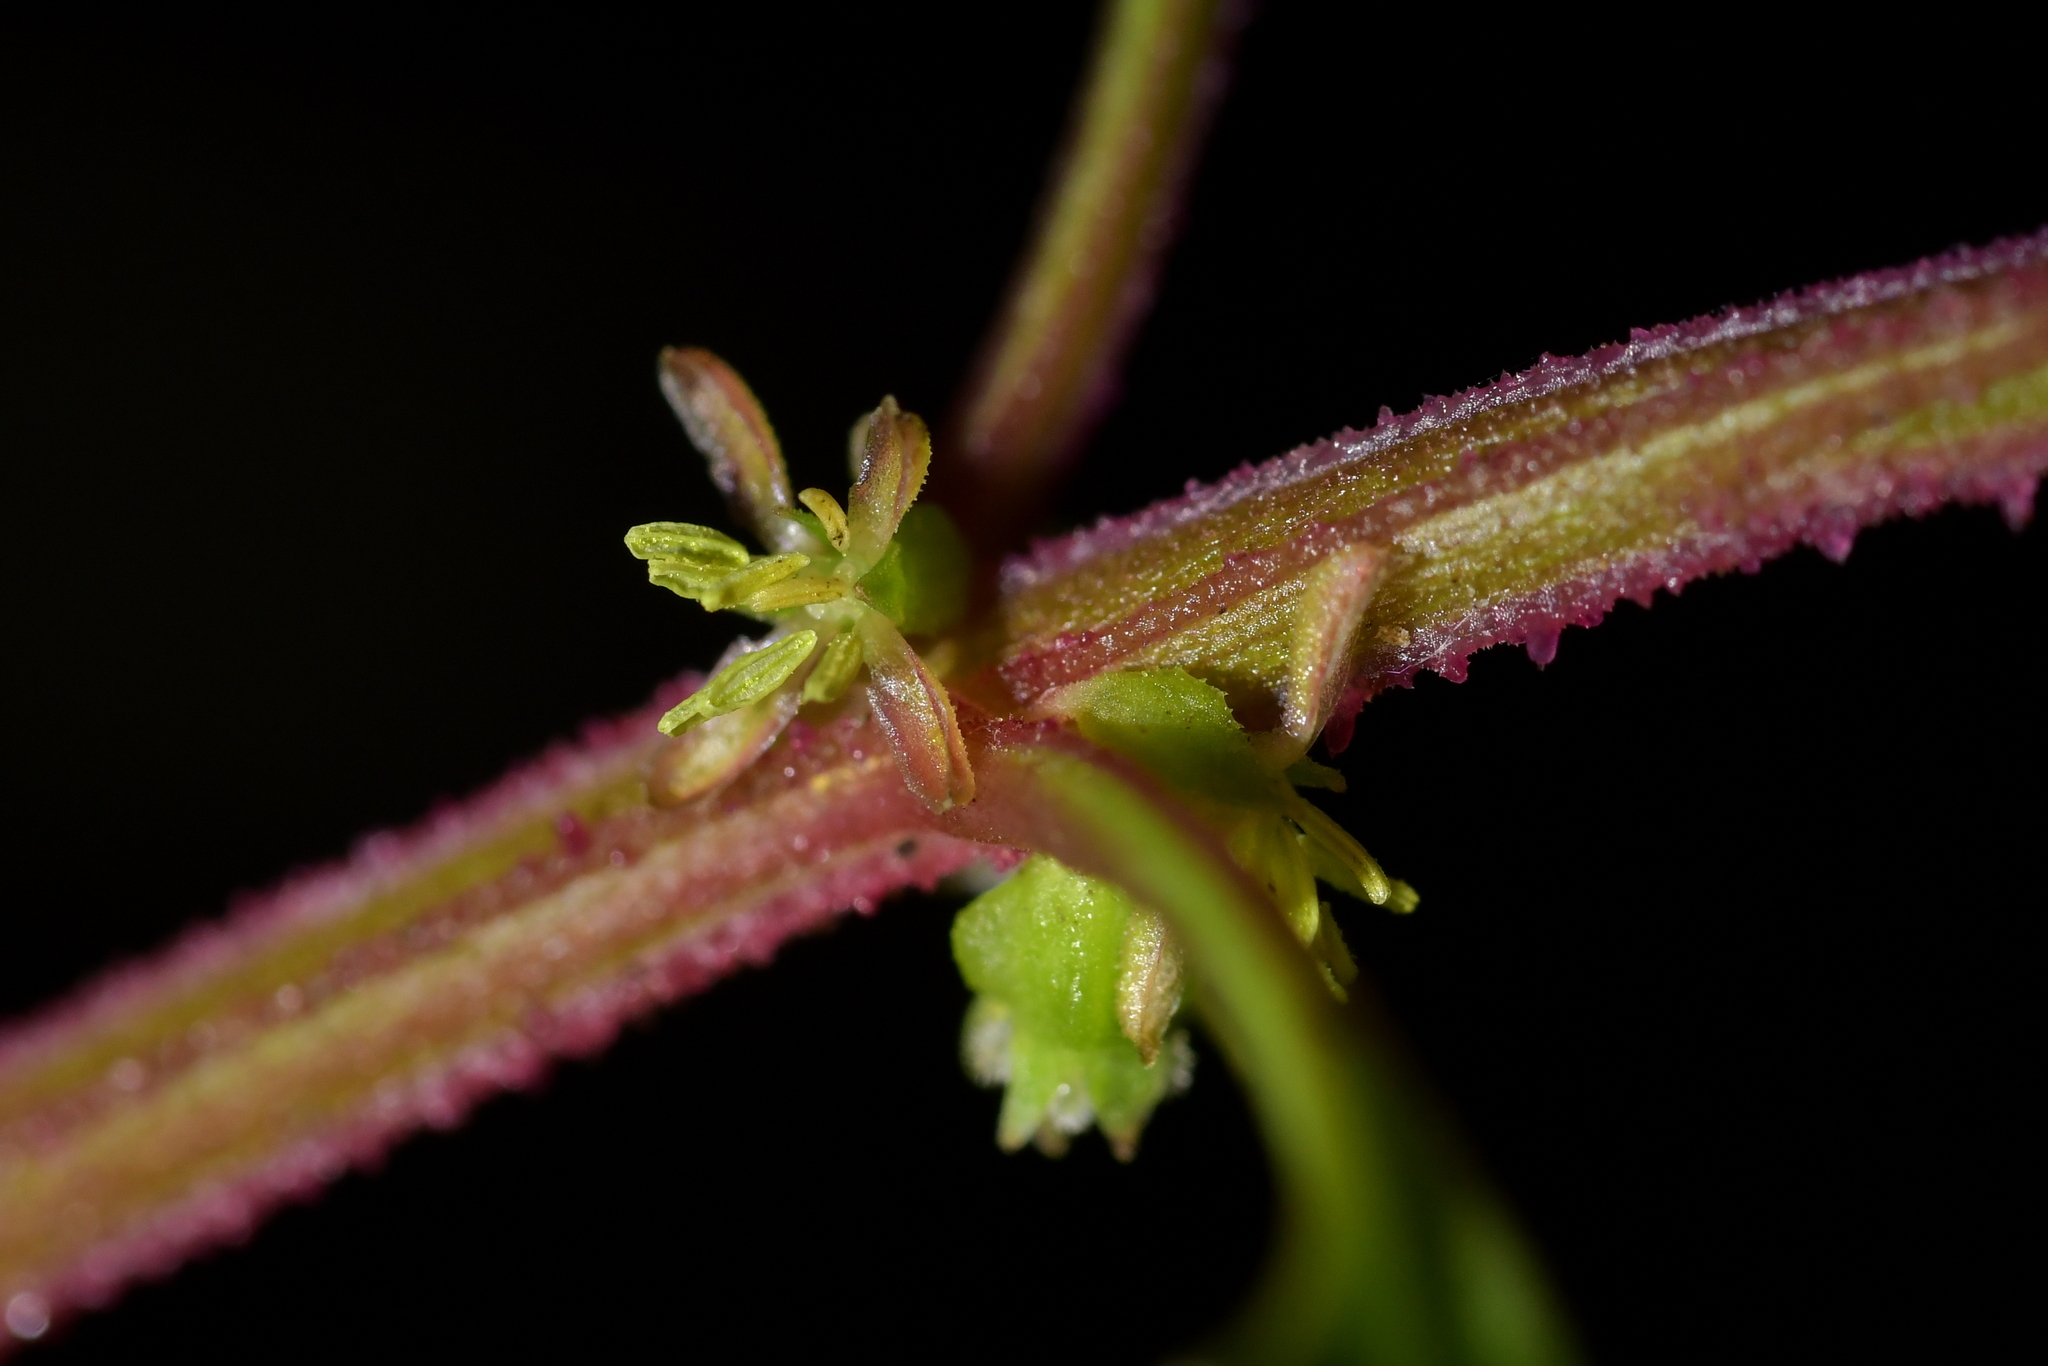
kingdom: Plantae
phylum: Tracheophyta
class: Magnoliopsida
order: Saxifragales
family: Haloragaceae
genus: Haloragis
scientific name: Haloragis erecta
